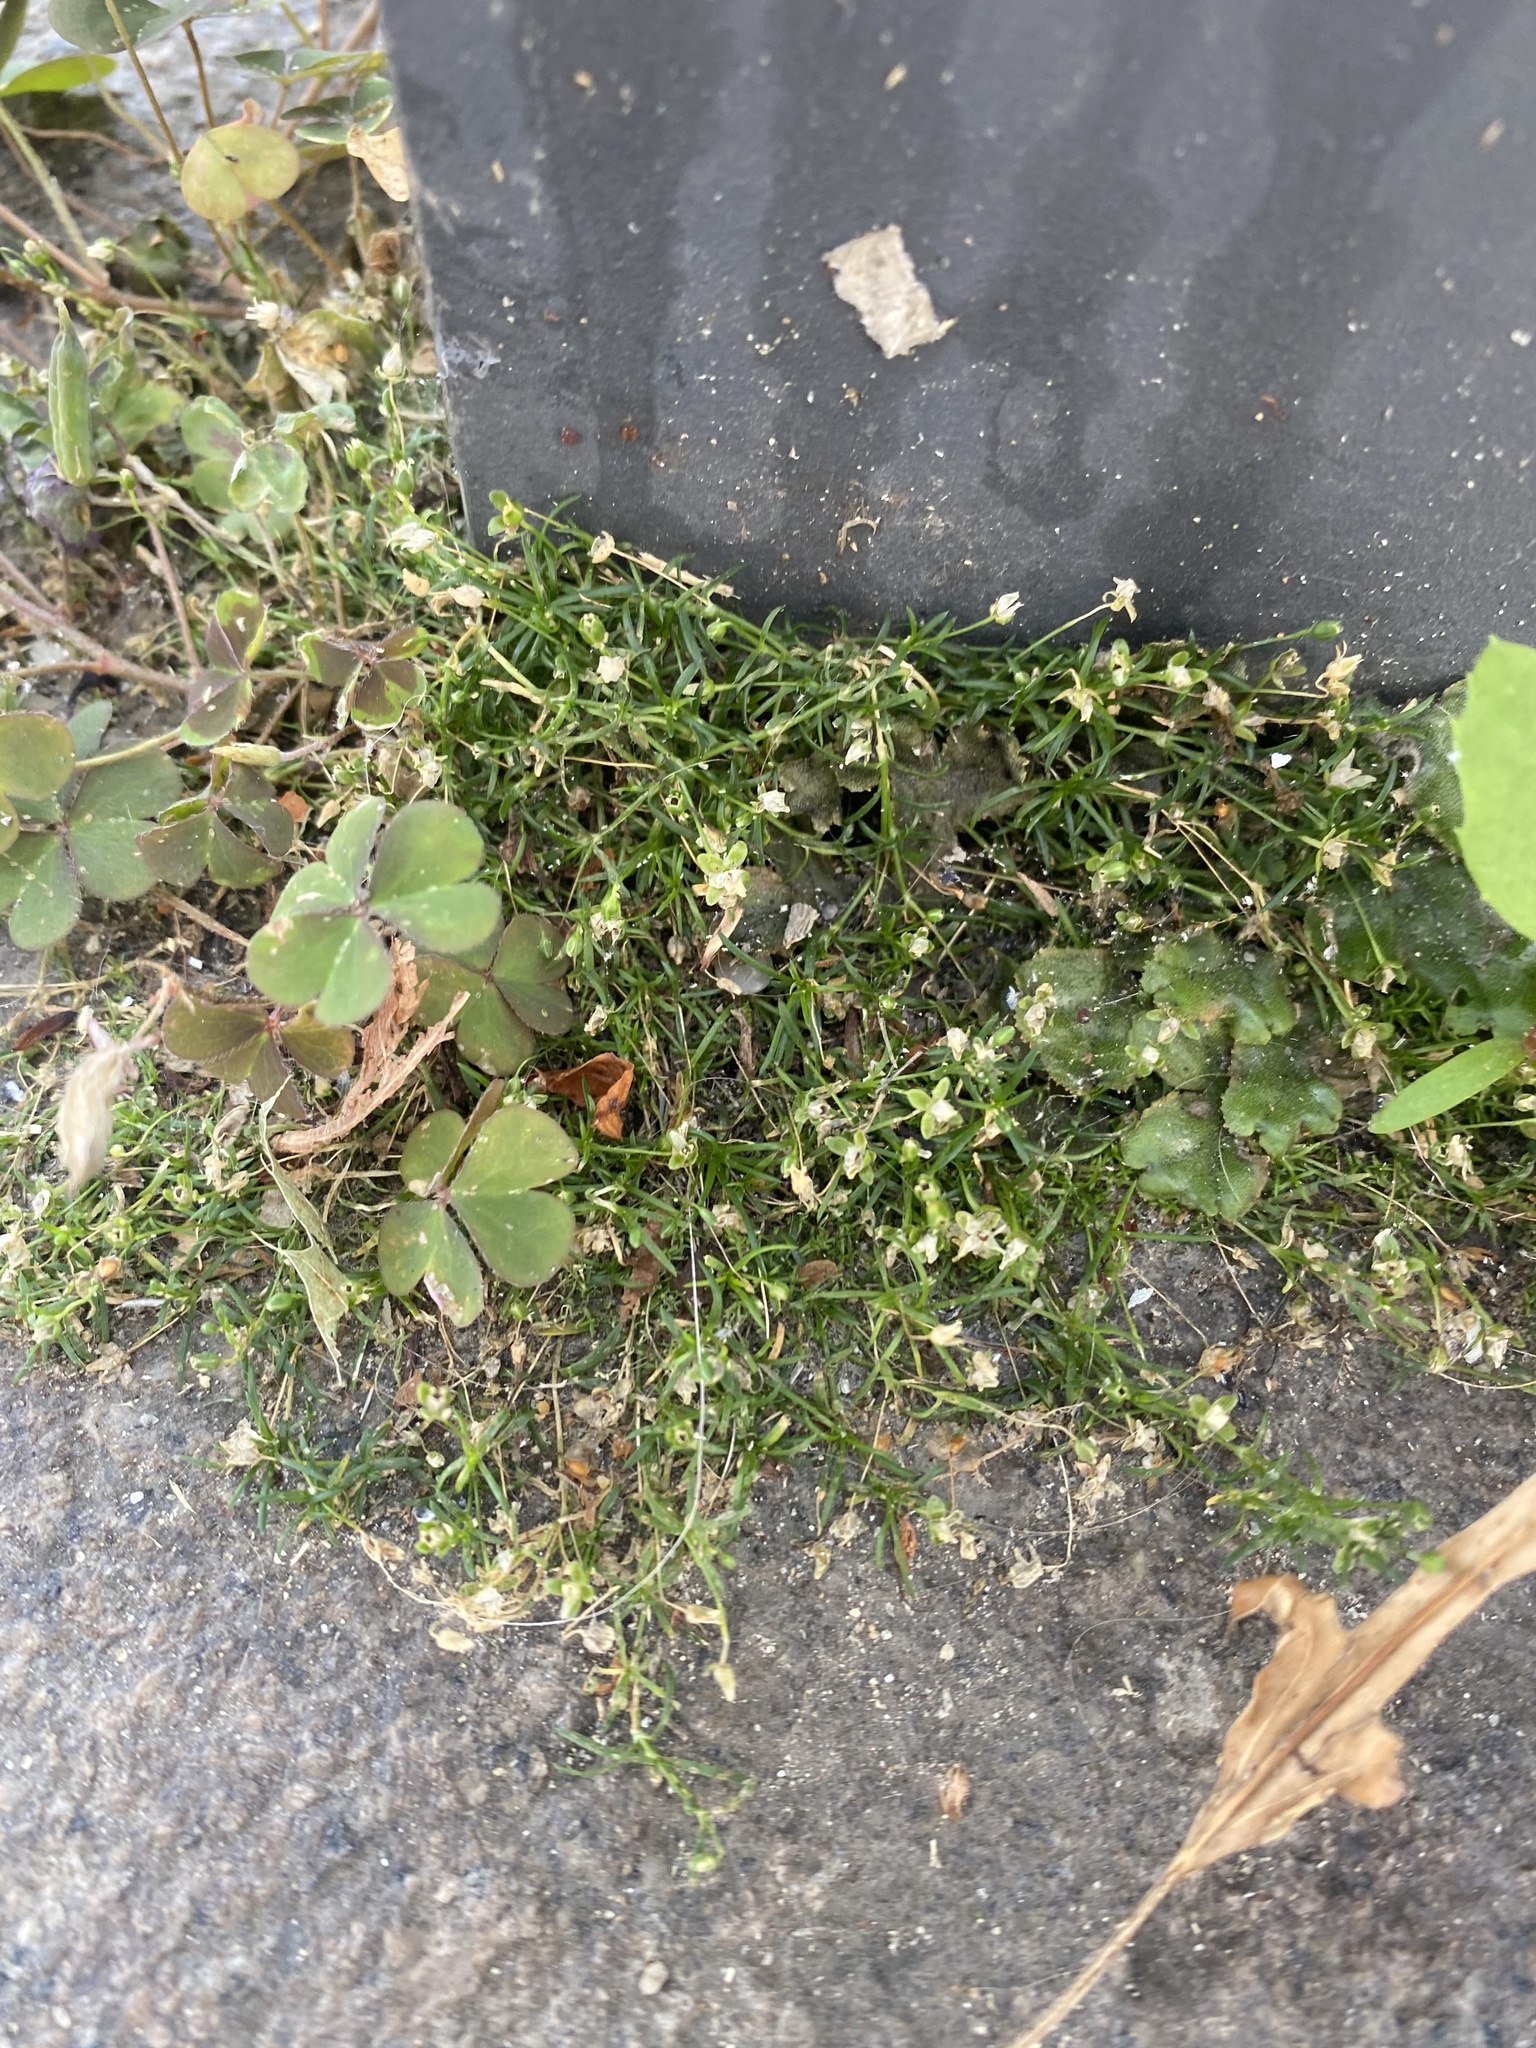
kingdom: Plantae
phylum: Tracheophyta
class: Magnoliopsida
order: Caryophyllales
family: Caryophyllaceae
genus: Sagina
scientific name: Sagina procumbens
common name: Procumbent pearlwort
